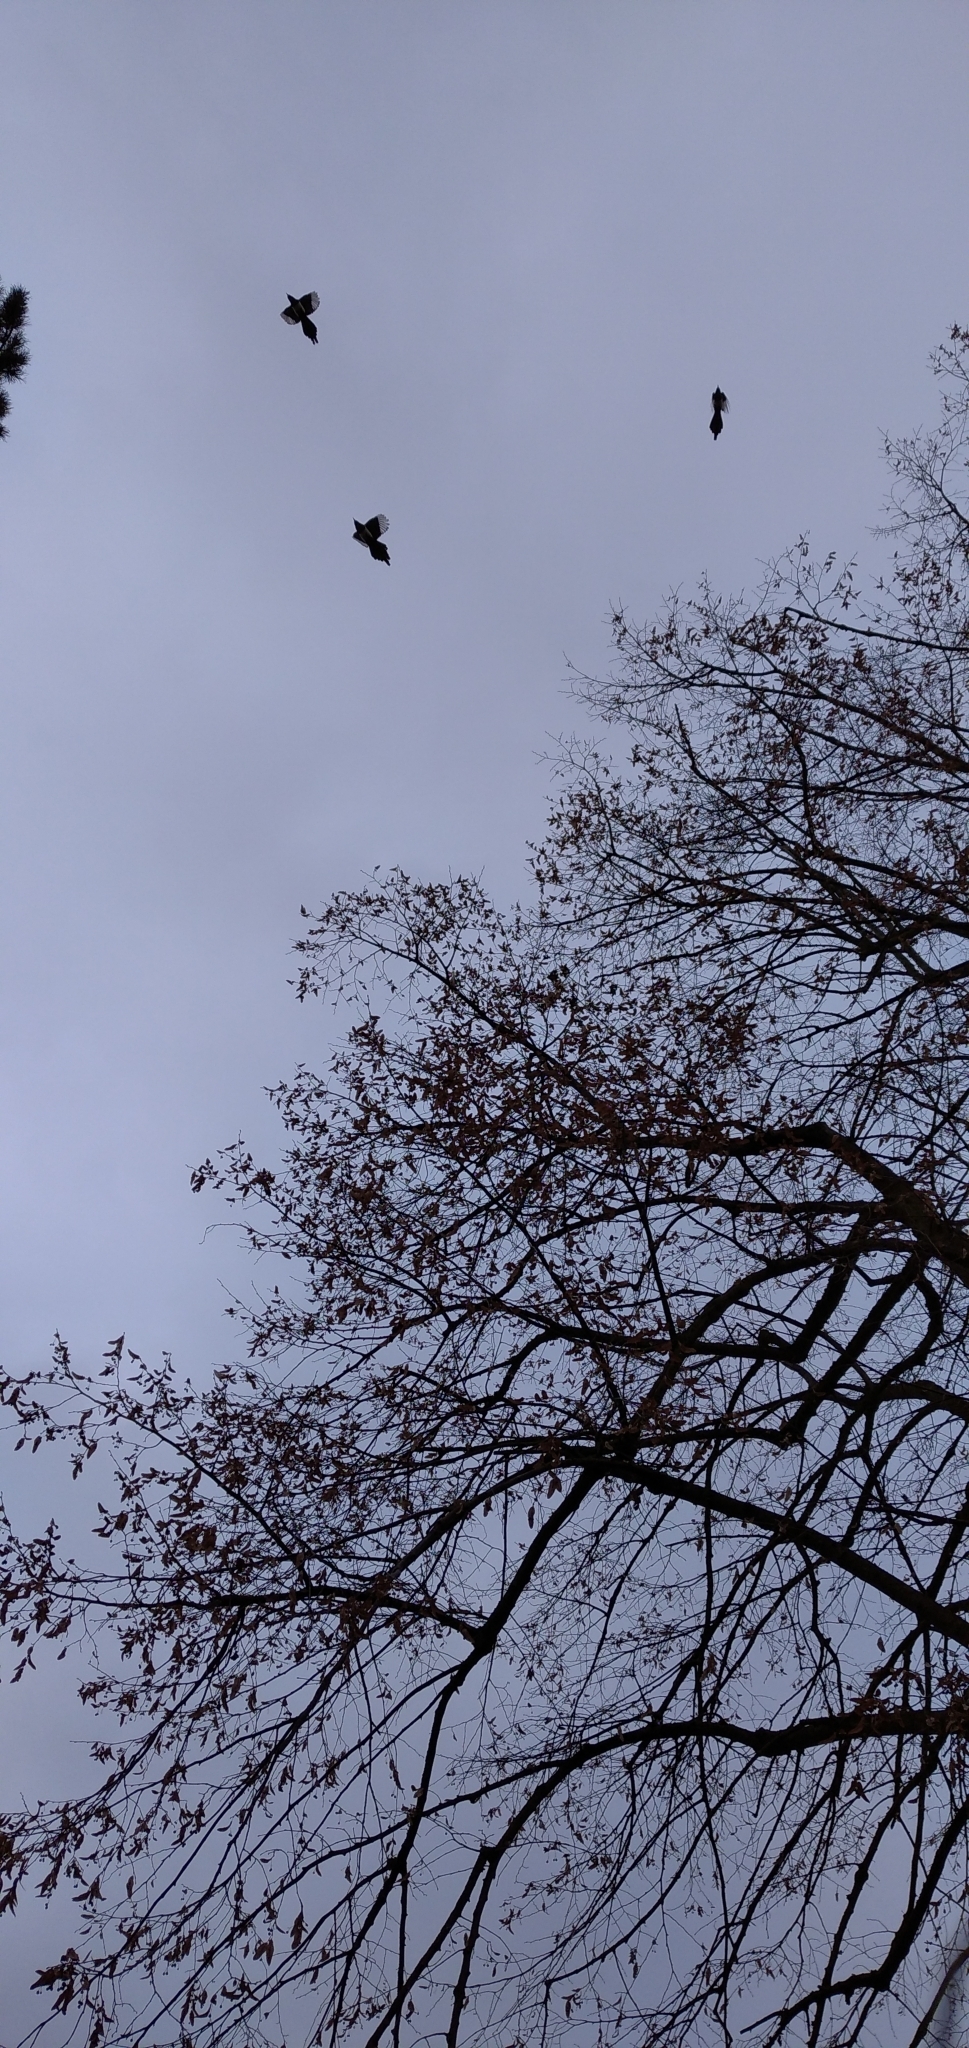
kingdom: Animalia
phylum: Chordata
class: Aves
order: Passeriformes
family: Corvidae
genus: Pica
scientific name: Pica pica
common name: Eurasian magpie
